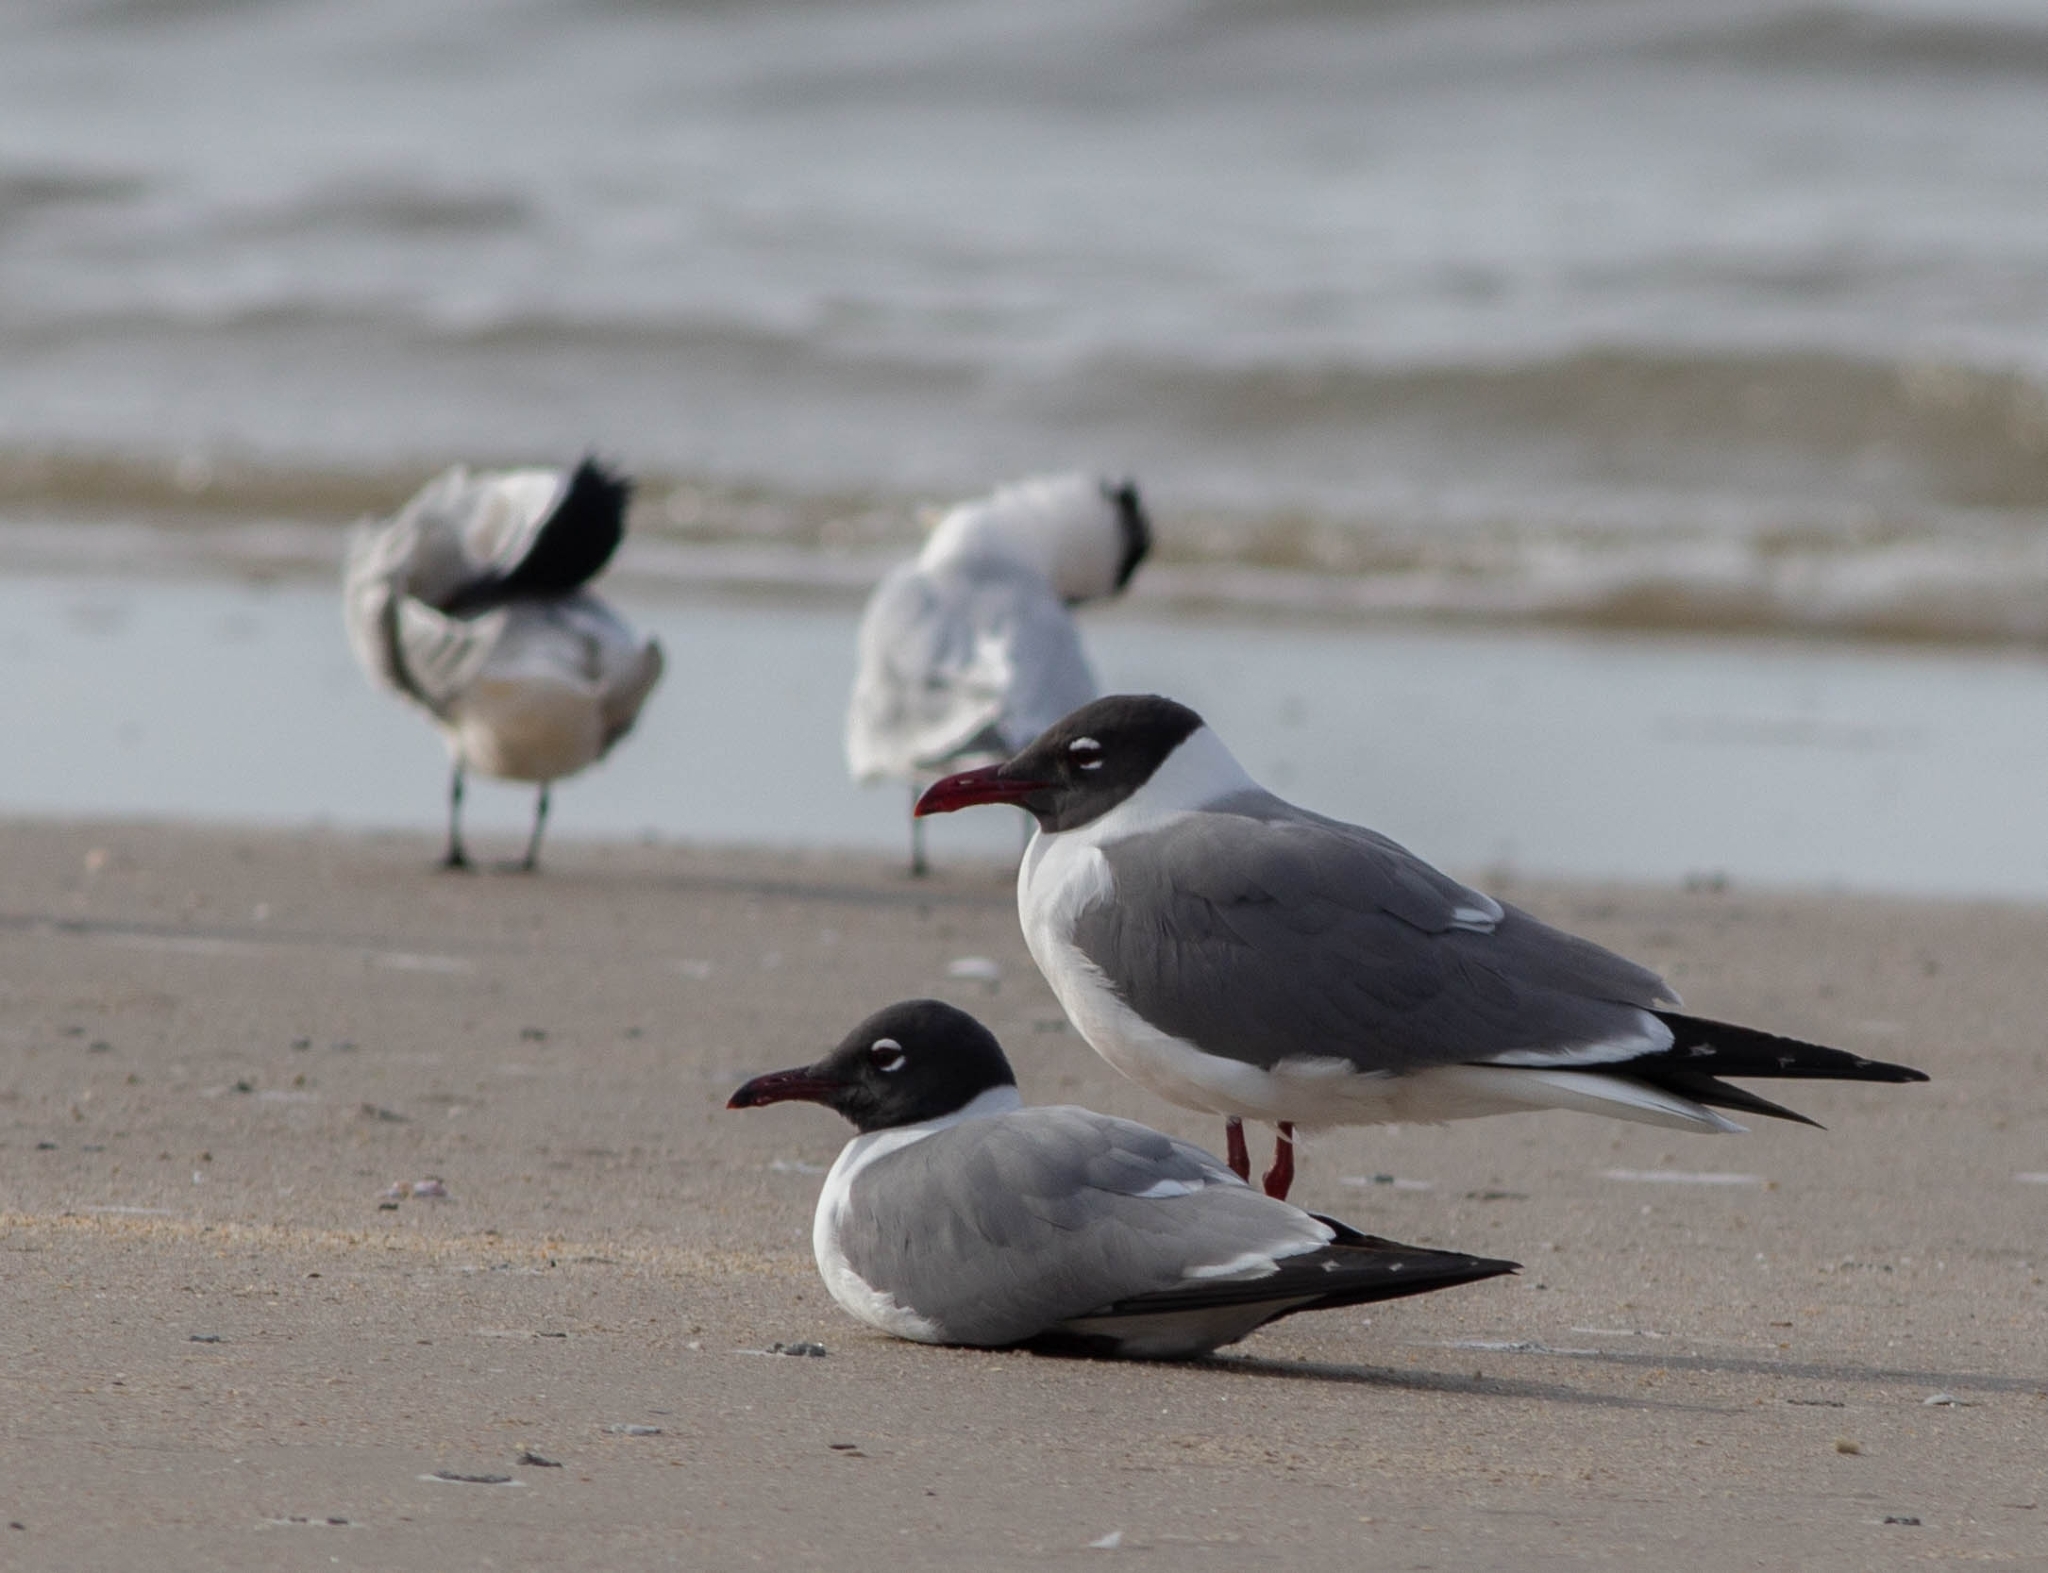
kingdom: Animalia
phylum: Chordata
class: Aves
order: Charadriiformes
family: Laridae
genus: Leucophaeus
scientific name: Leucophaeus atricilla
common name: Laughing gull
